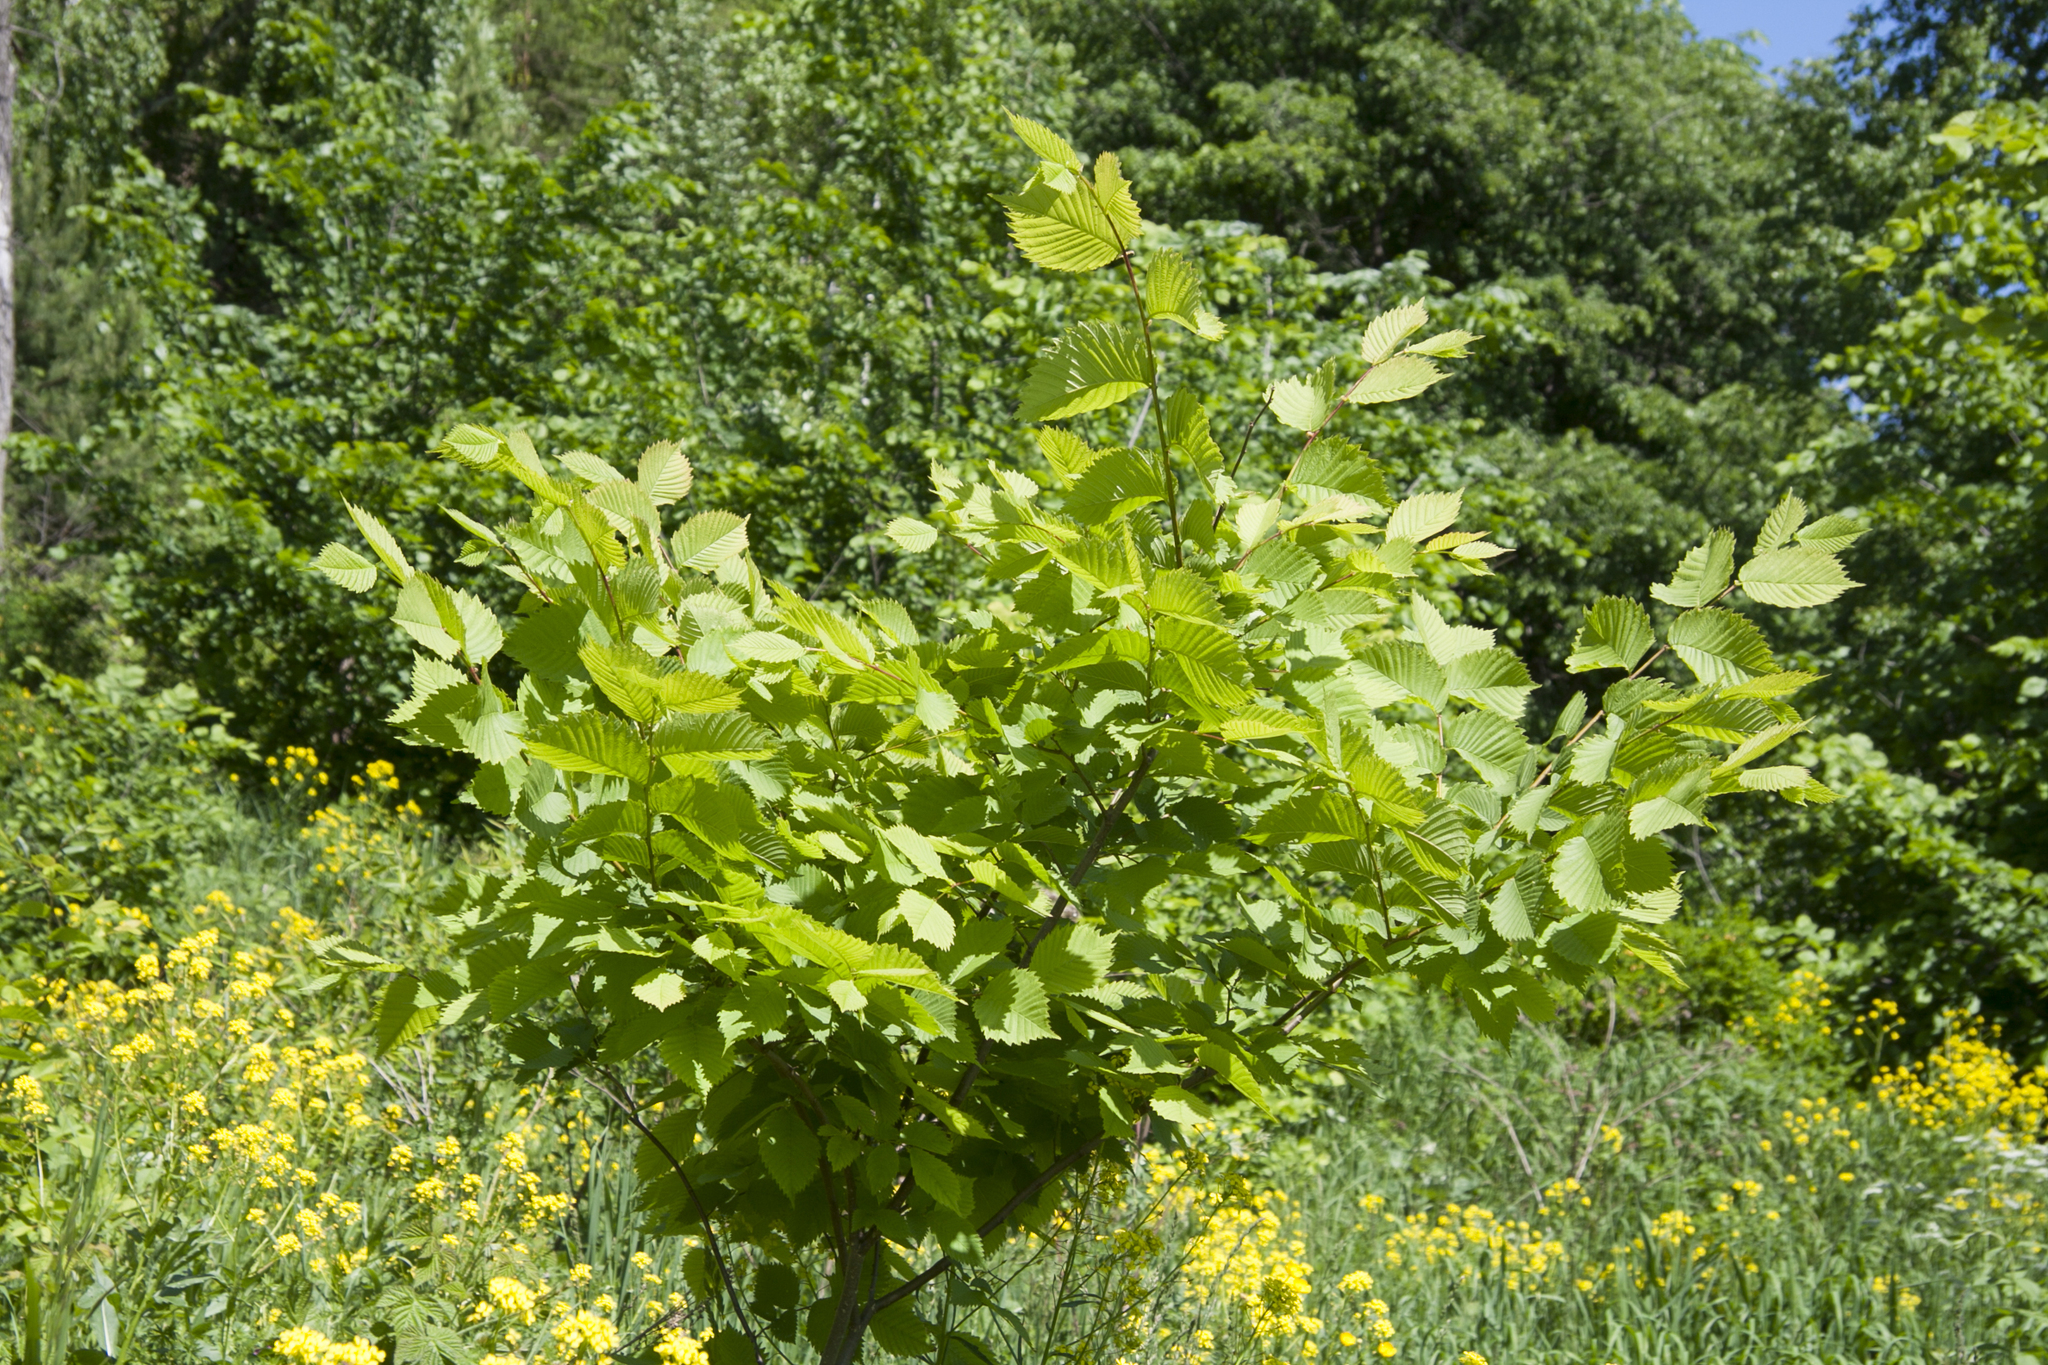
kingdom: Plantae
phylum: Tracheophyta
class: Magnoliopsida
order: Rosales
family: Ulmaceae
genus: Ulmus
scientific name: Ulmus glabra
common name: Wych elm
